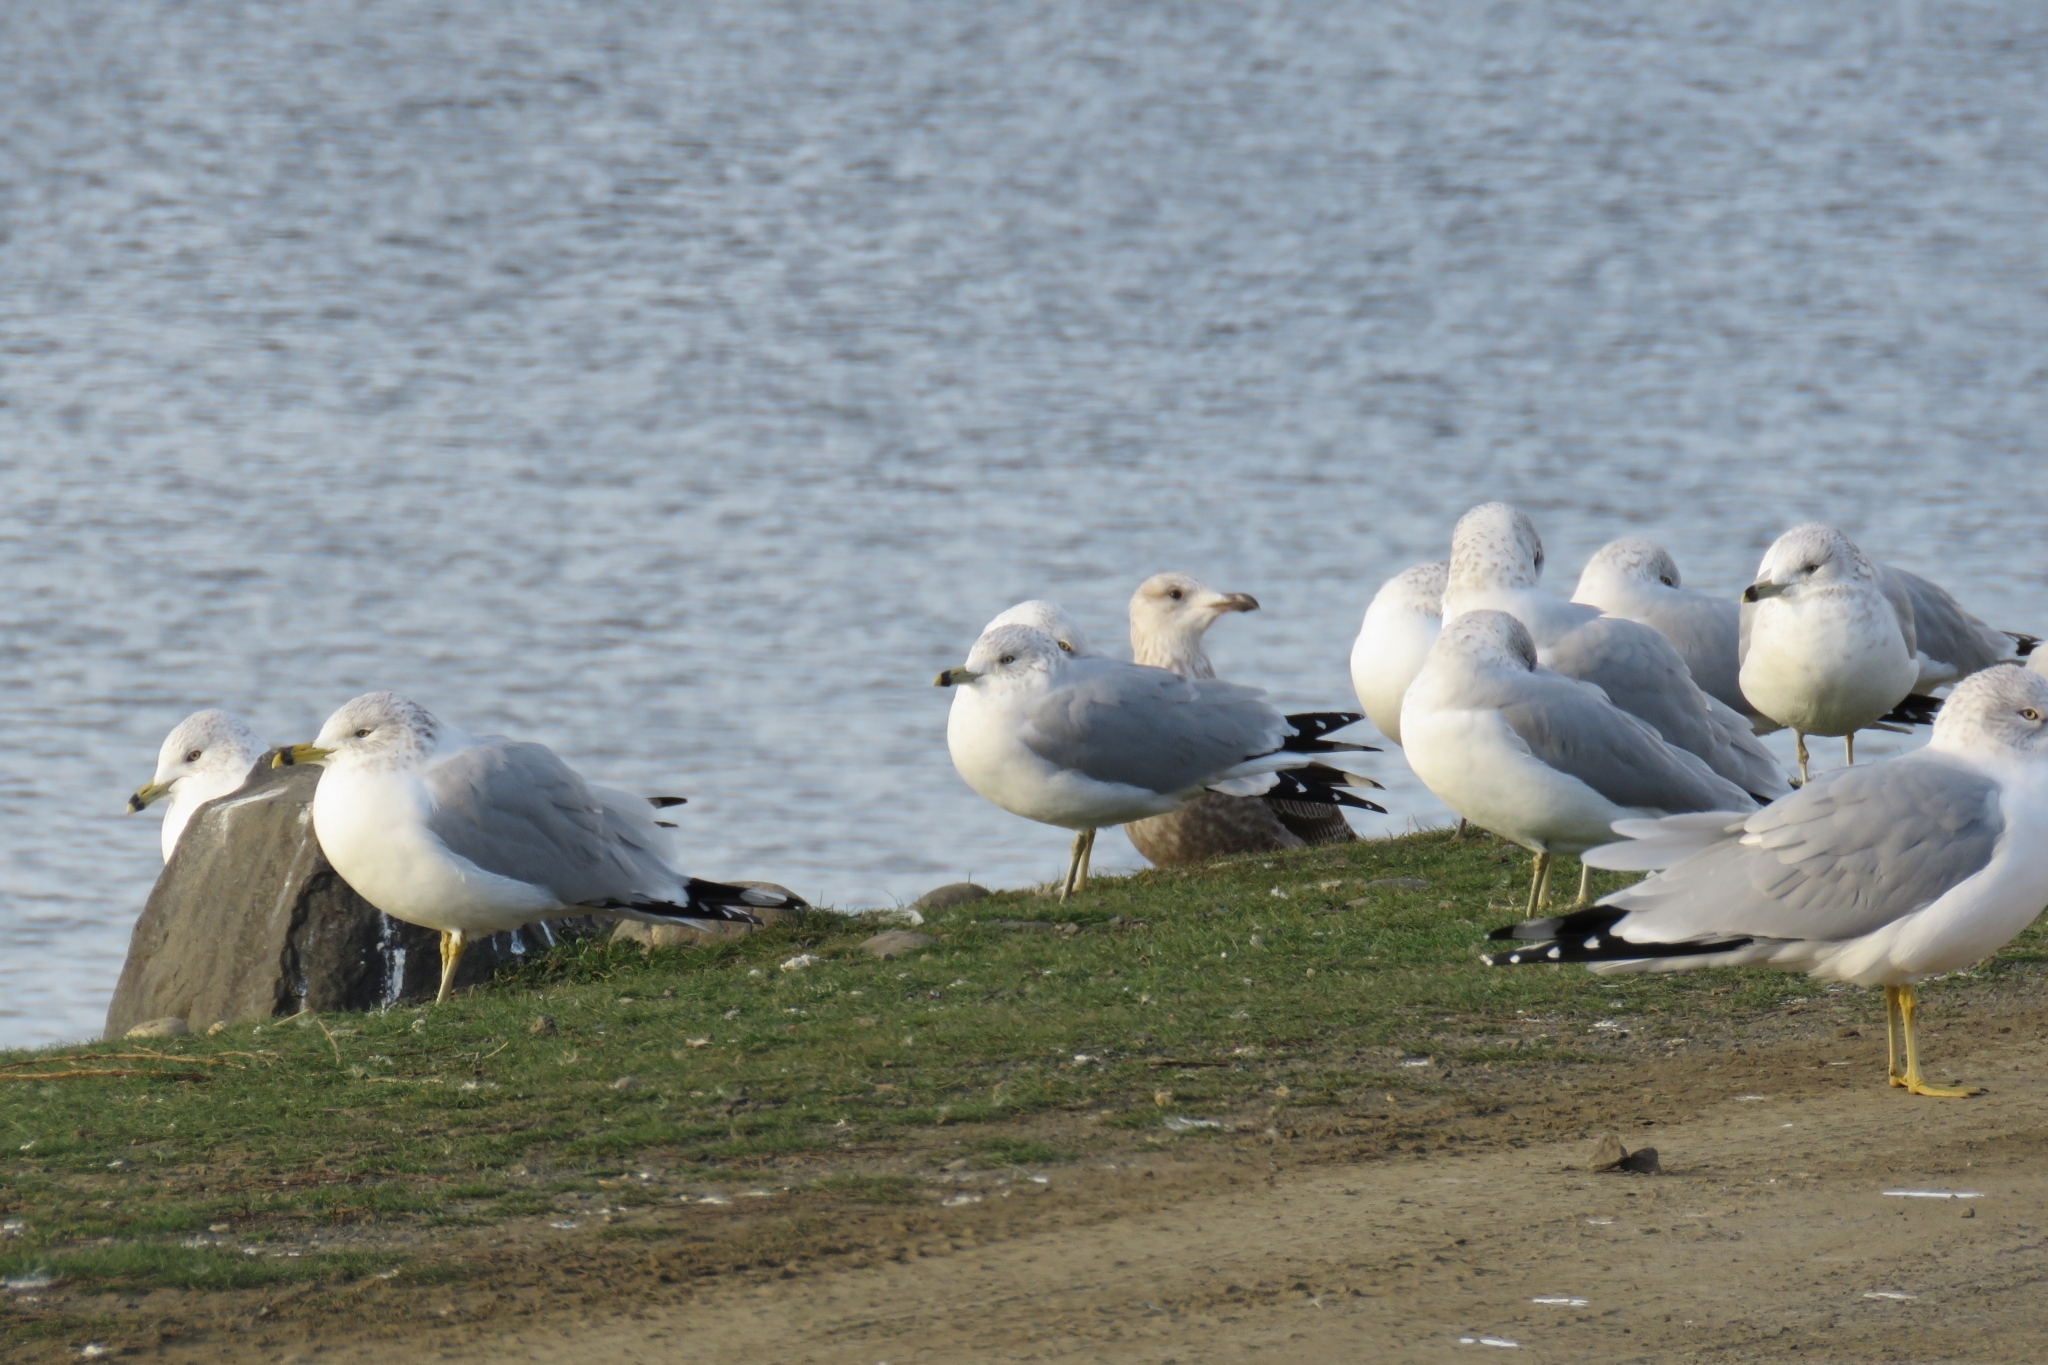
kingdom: Animalia
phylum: Chordata
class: Aves
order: Charadriiformes
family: Laridae
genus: Larus
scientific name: Larus argentatus
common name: Herring gull
